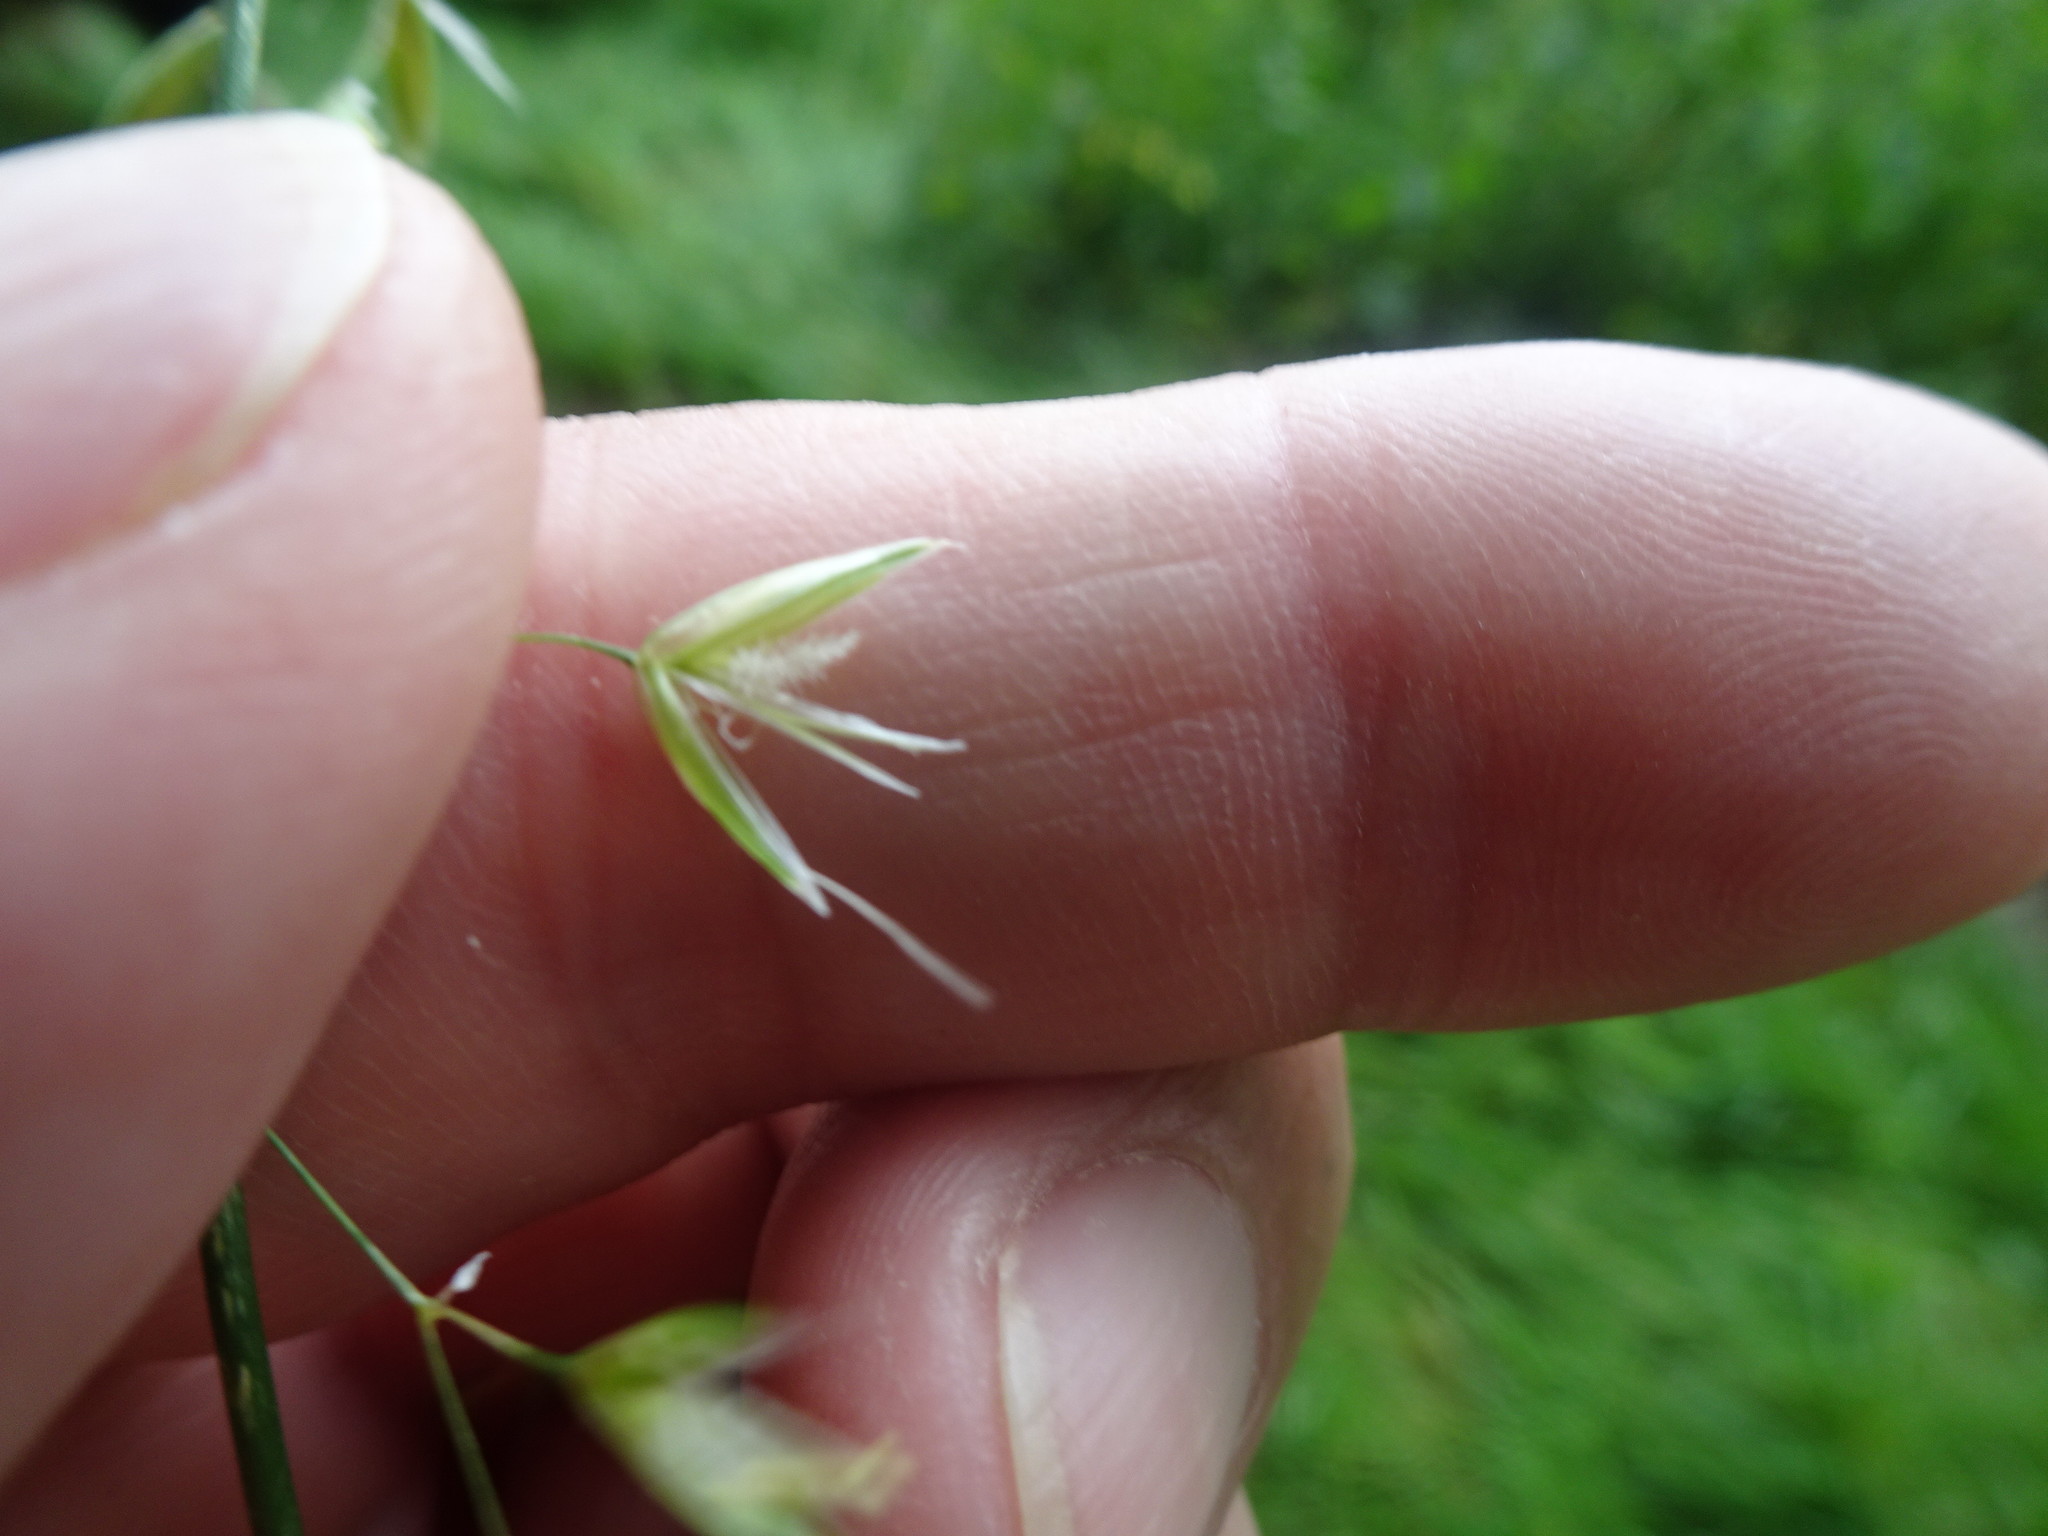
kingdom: Plantae
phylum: Tracheophyta
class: Liliopsida
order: Poales
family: Poaceae
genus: Trisetum
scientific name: Trisetum flavescens
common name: Yellow oat-grass
